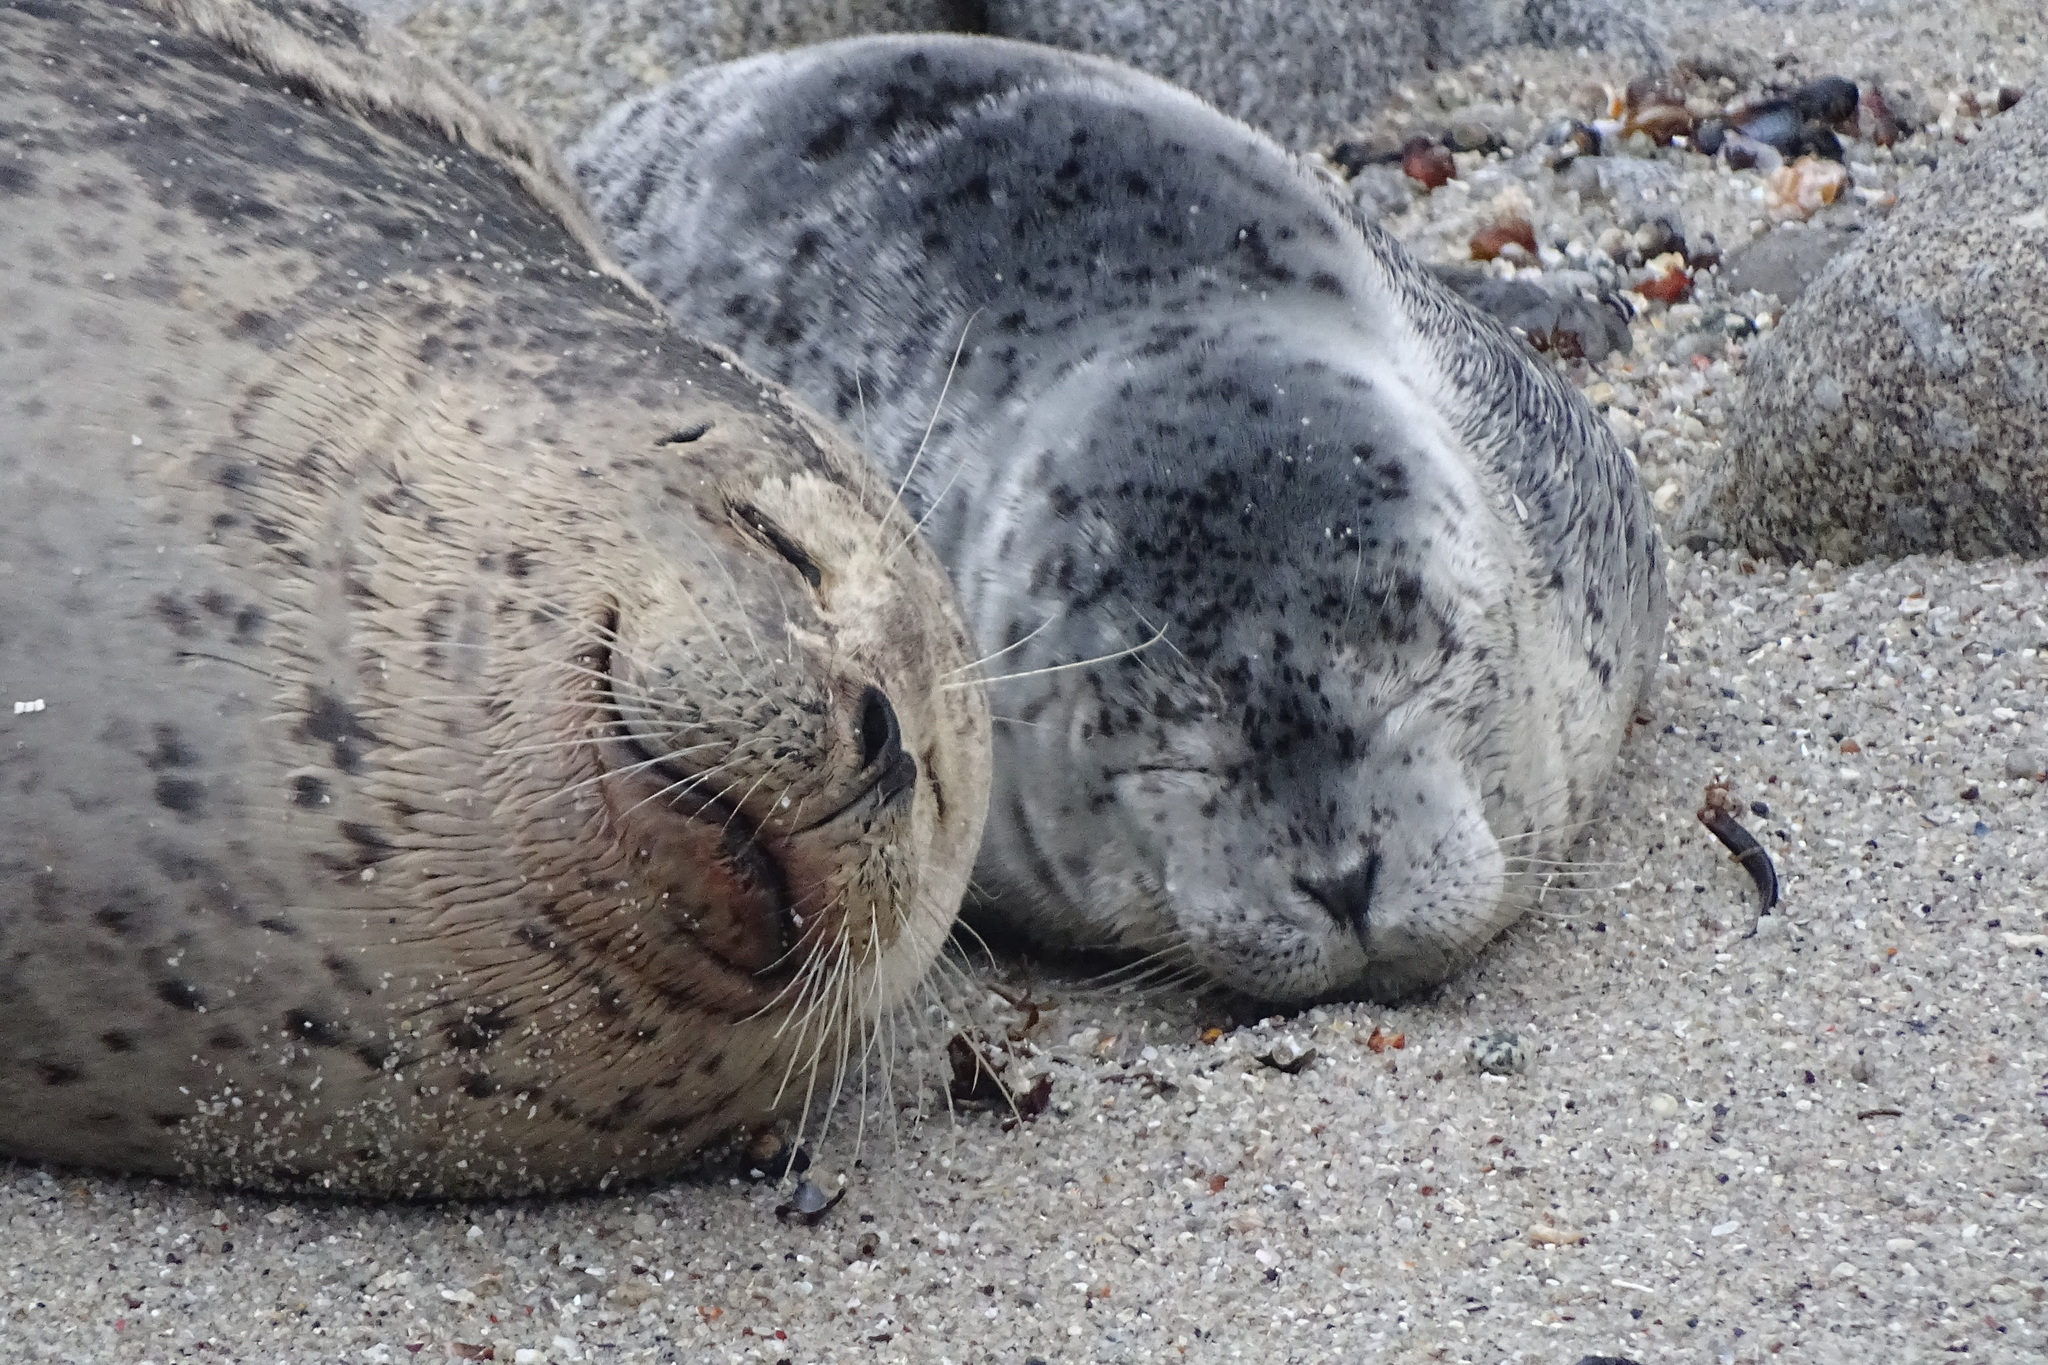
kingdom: Animalia
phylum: Chordata
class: Mammalia
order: Carnivora
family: Phocidae
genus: Phoca
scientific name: Phoca vitulina
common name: Harbor seal
